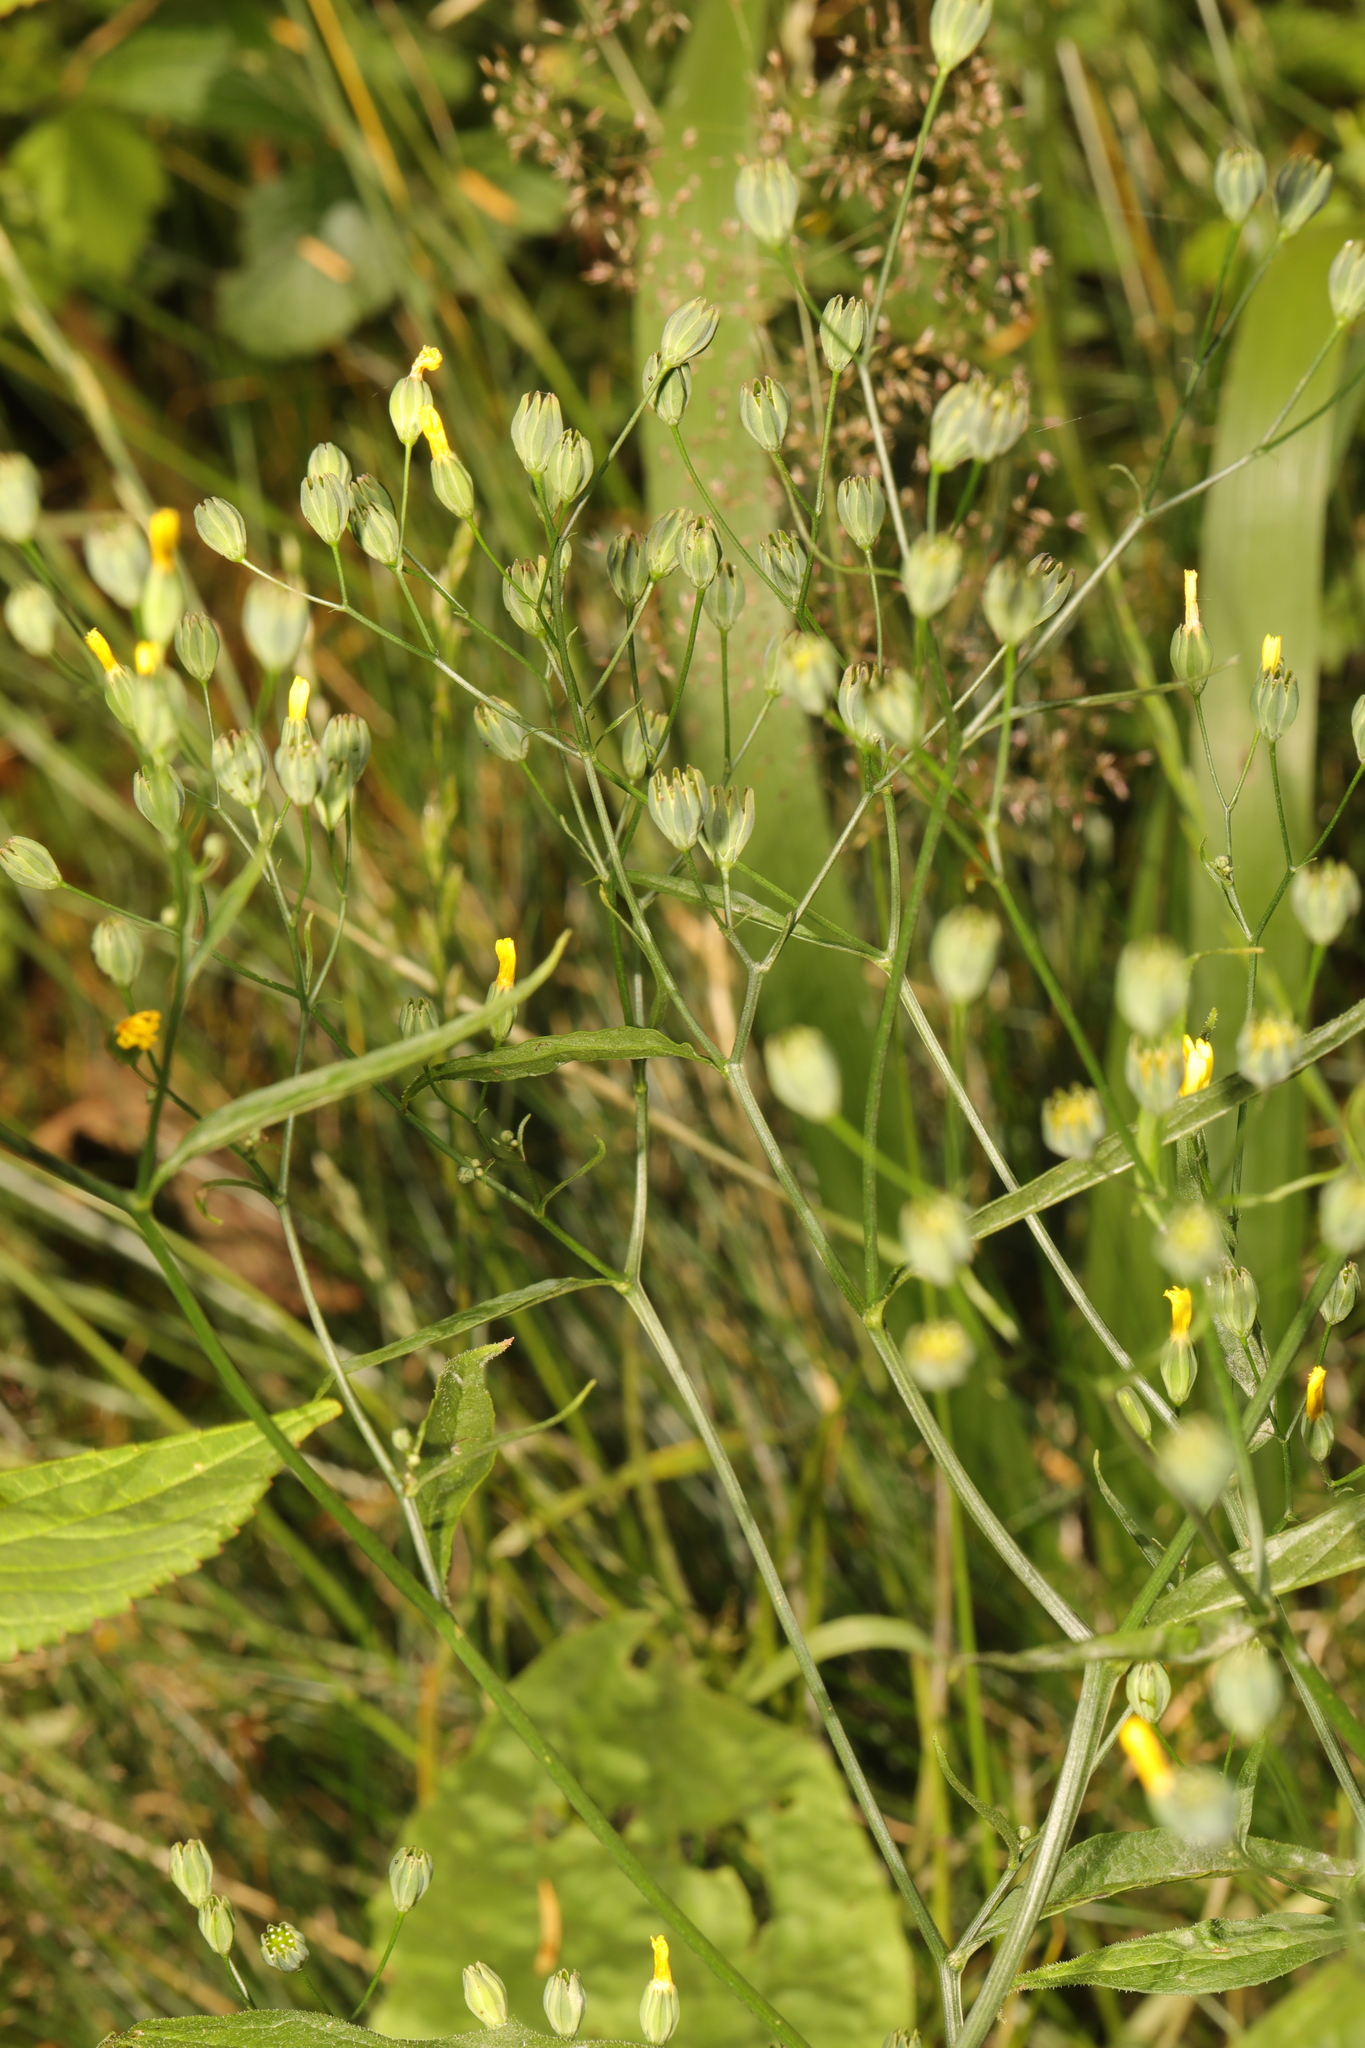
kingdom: Plantae
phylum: Tracheophyta
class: Magnoliopsida
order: Asterales
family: Asteraceae
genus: Lapsana
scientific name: Lapsana communis
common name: Nipplewort
